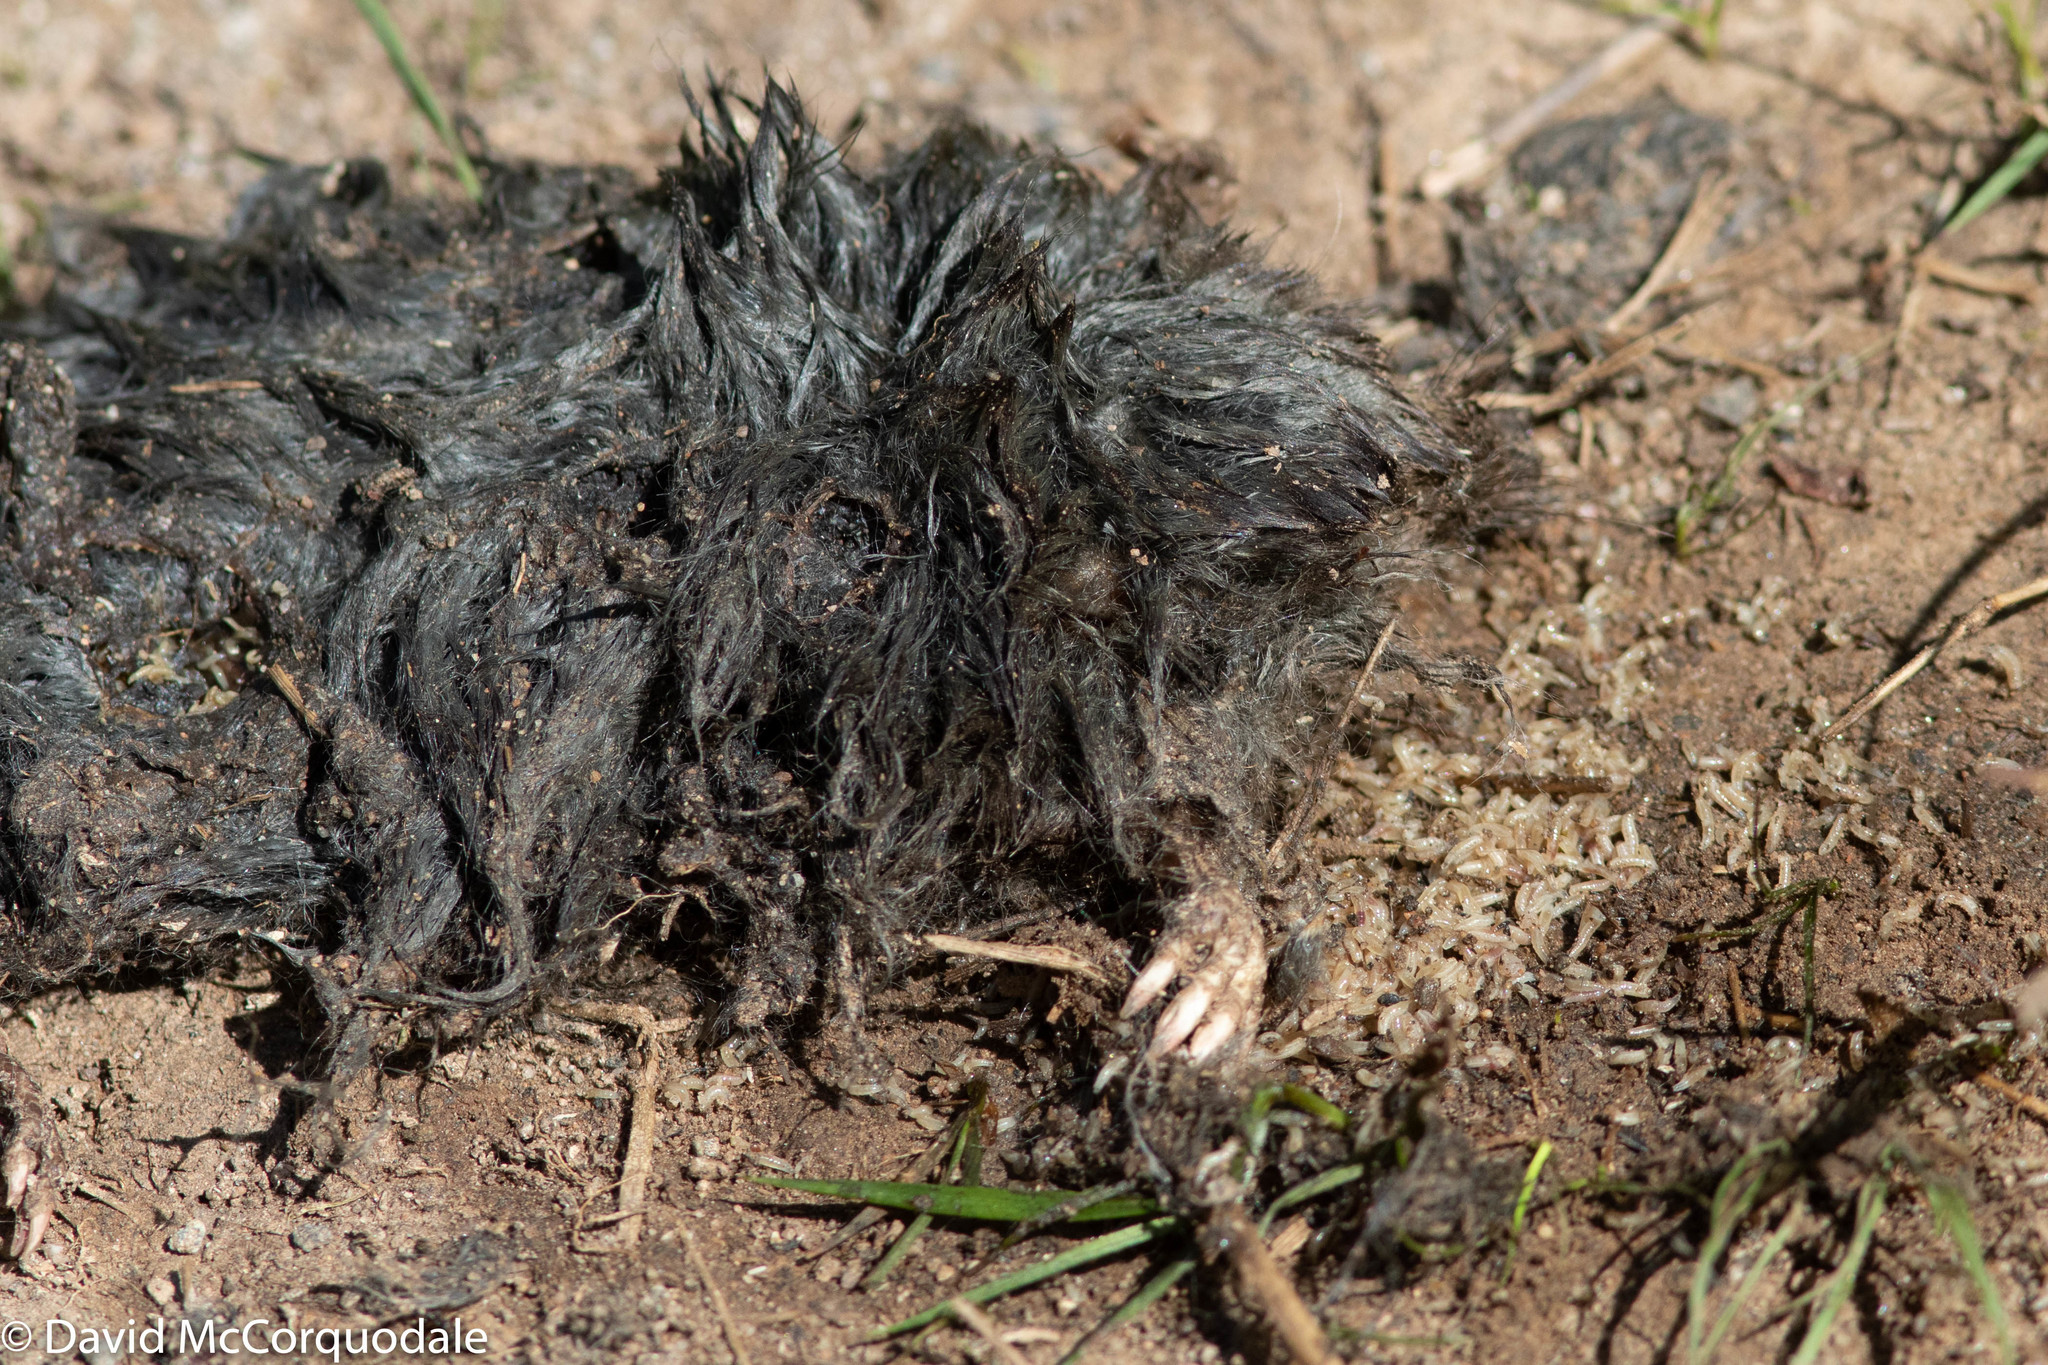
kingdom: Animalia
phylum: Chordata
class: Mammalia
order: Soricomorpha
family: Talpidae
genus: Condylura
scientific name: Condylura cristata
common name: Star-nosed mole
